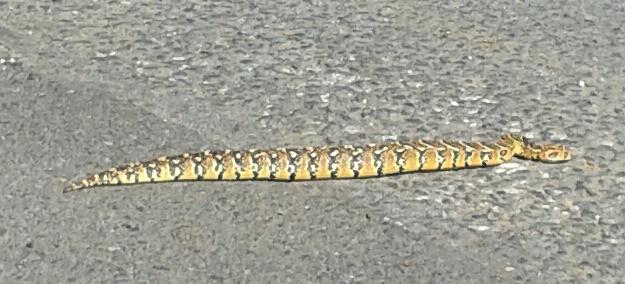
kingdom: Animalia
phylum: Chordata
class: Squamata
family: Viperidae
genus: Bitis
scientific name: Bitis arietans
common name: Puff adder
